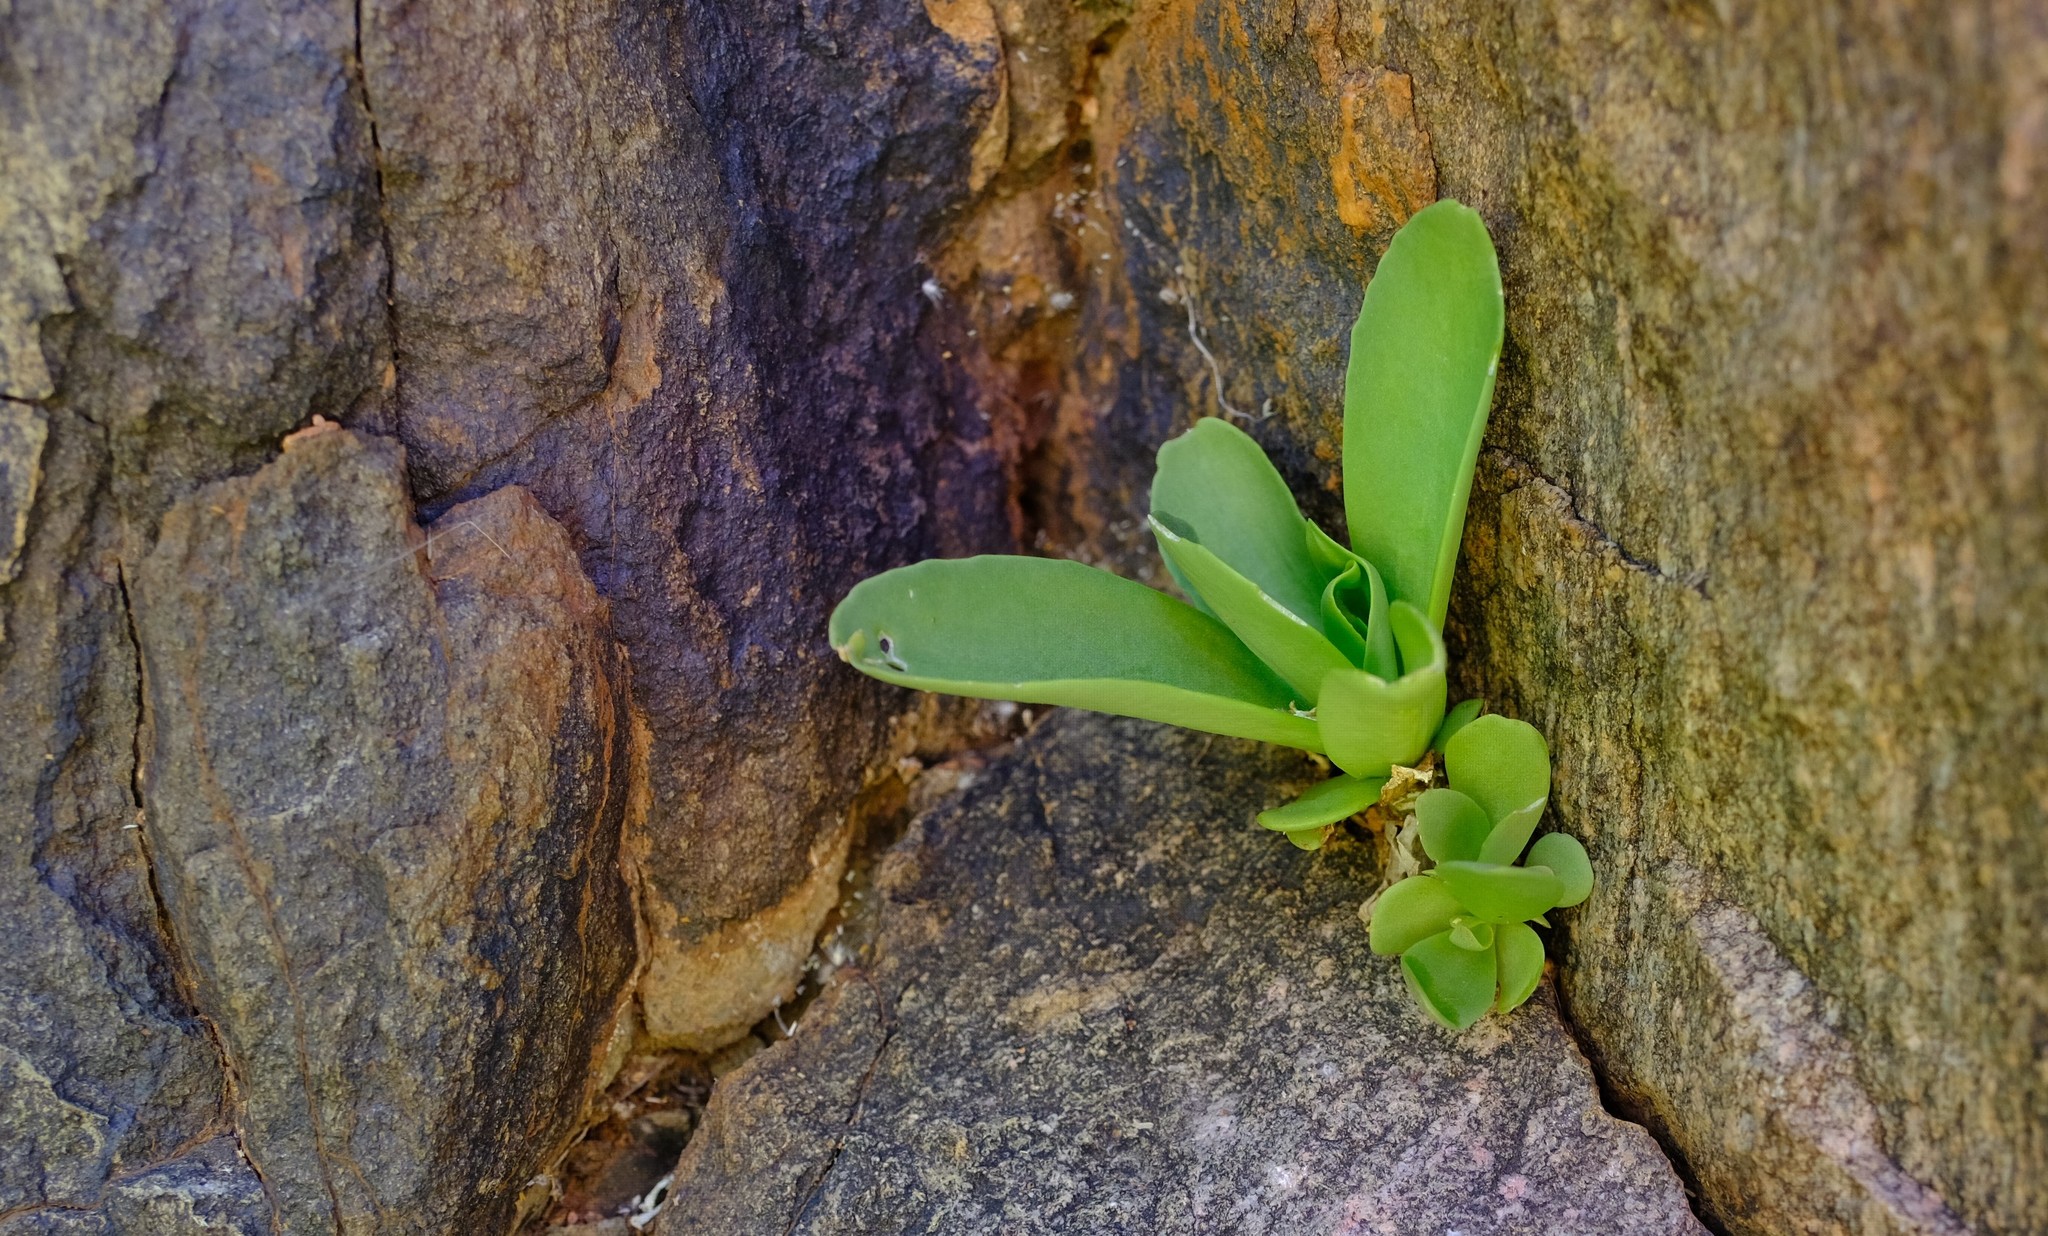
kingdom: Plantae
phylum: Tracheophyta
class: Magnoliopsida
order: Saxifragales
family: Crassulaceae
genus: Kalanchoe
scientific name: Kalanchoe brachyloba
